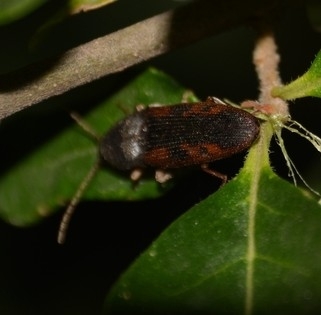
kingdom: Animalia
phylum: Arthropoda
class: Insecta
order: Coleoptera
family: Elateridae
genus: Monocrepidius
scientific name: Monocrepidius
